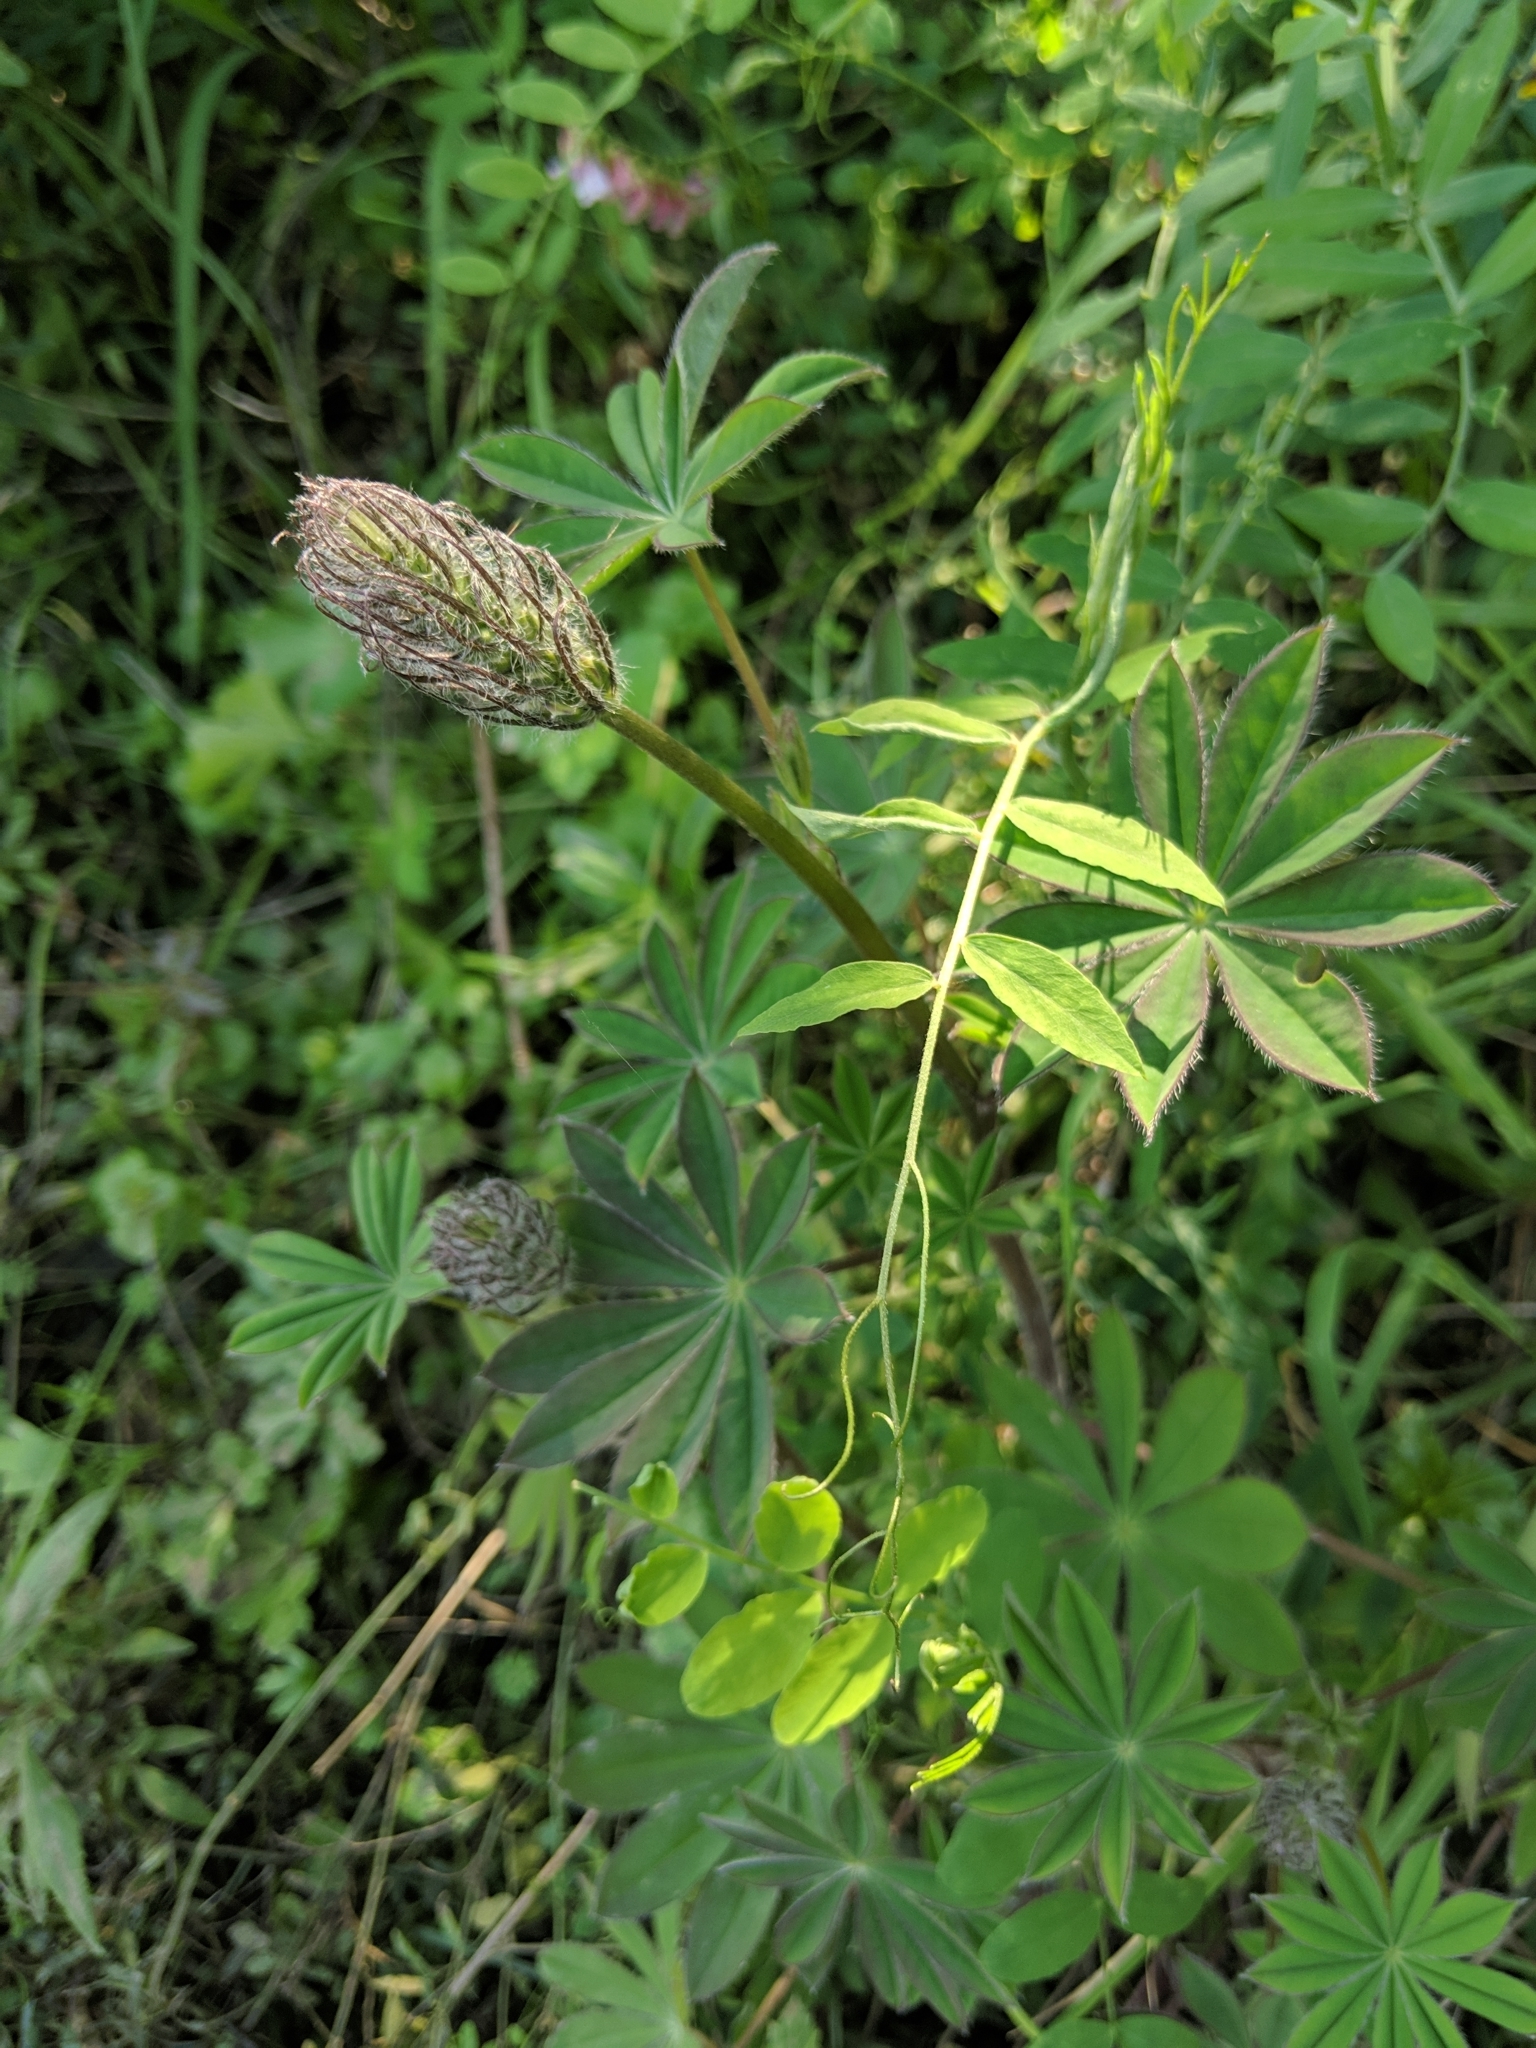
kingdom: Plantae
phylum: Tracheophyta
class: Magnoliopsida
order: Fabales
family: Fabaceae
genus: Lupinus
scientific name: Lupinus latifolius
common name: Broad-leaved lupine
